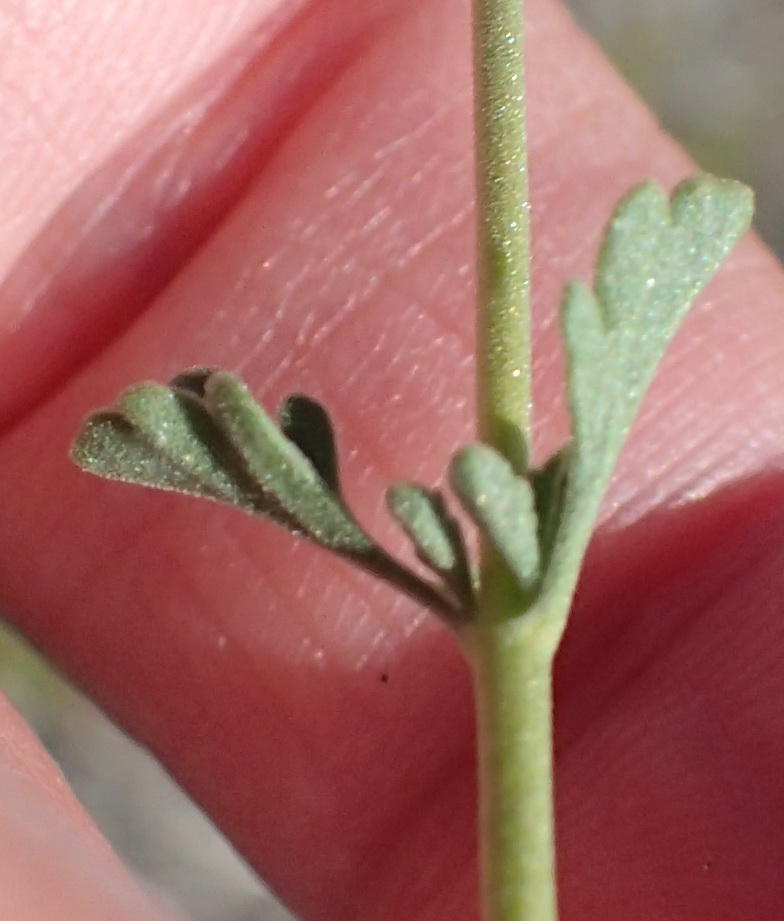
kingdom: Plantae
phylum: Tracheophyta
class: Magnoliopsida
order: Lamiales
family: Scrophulariaceae
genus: Jamesbrittenia
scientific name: Jamesbrittenia tysonii
